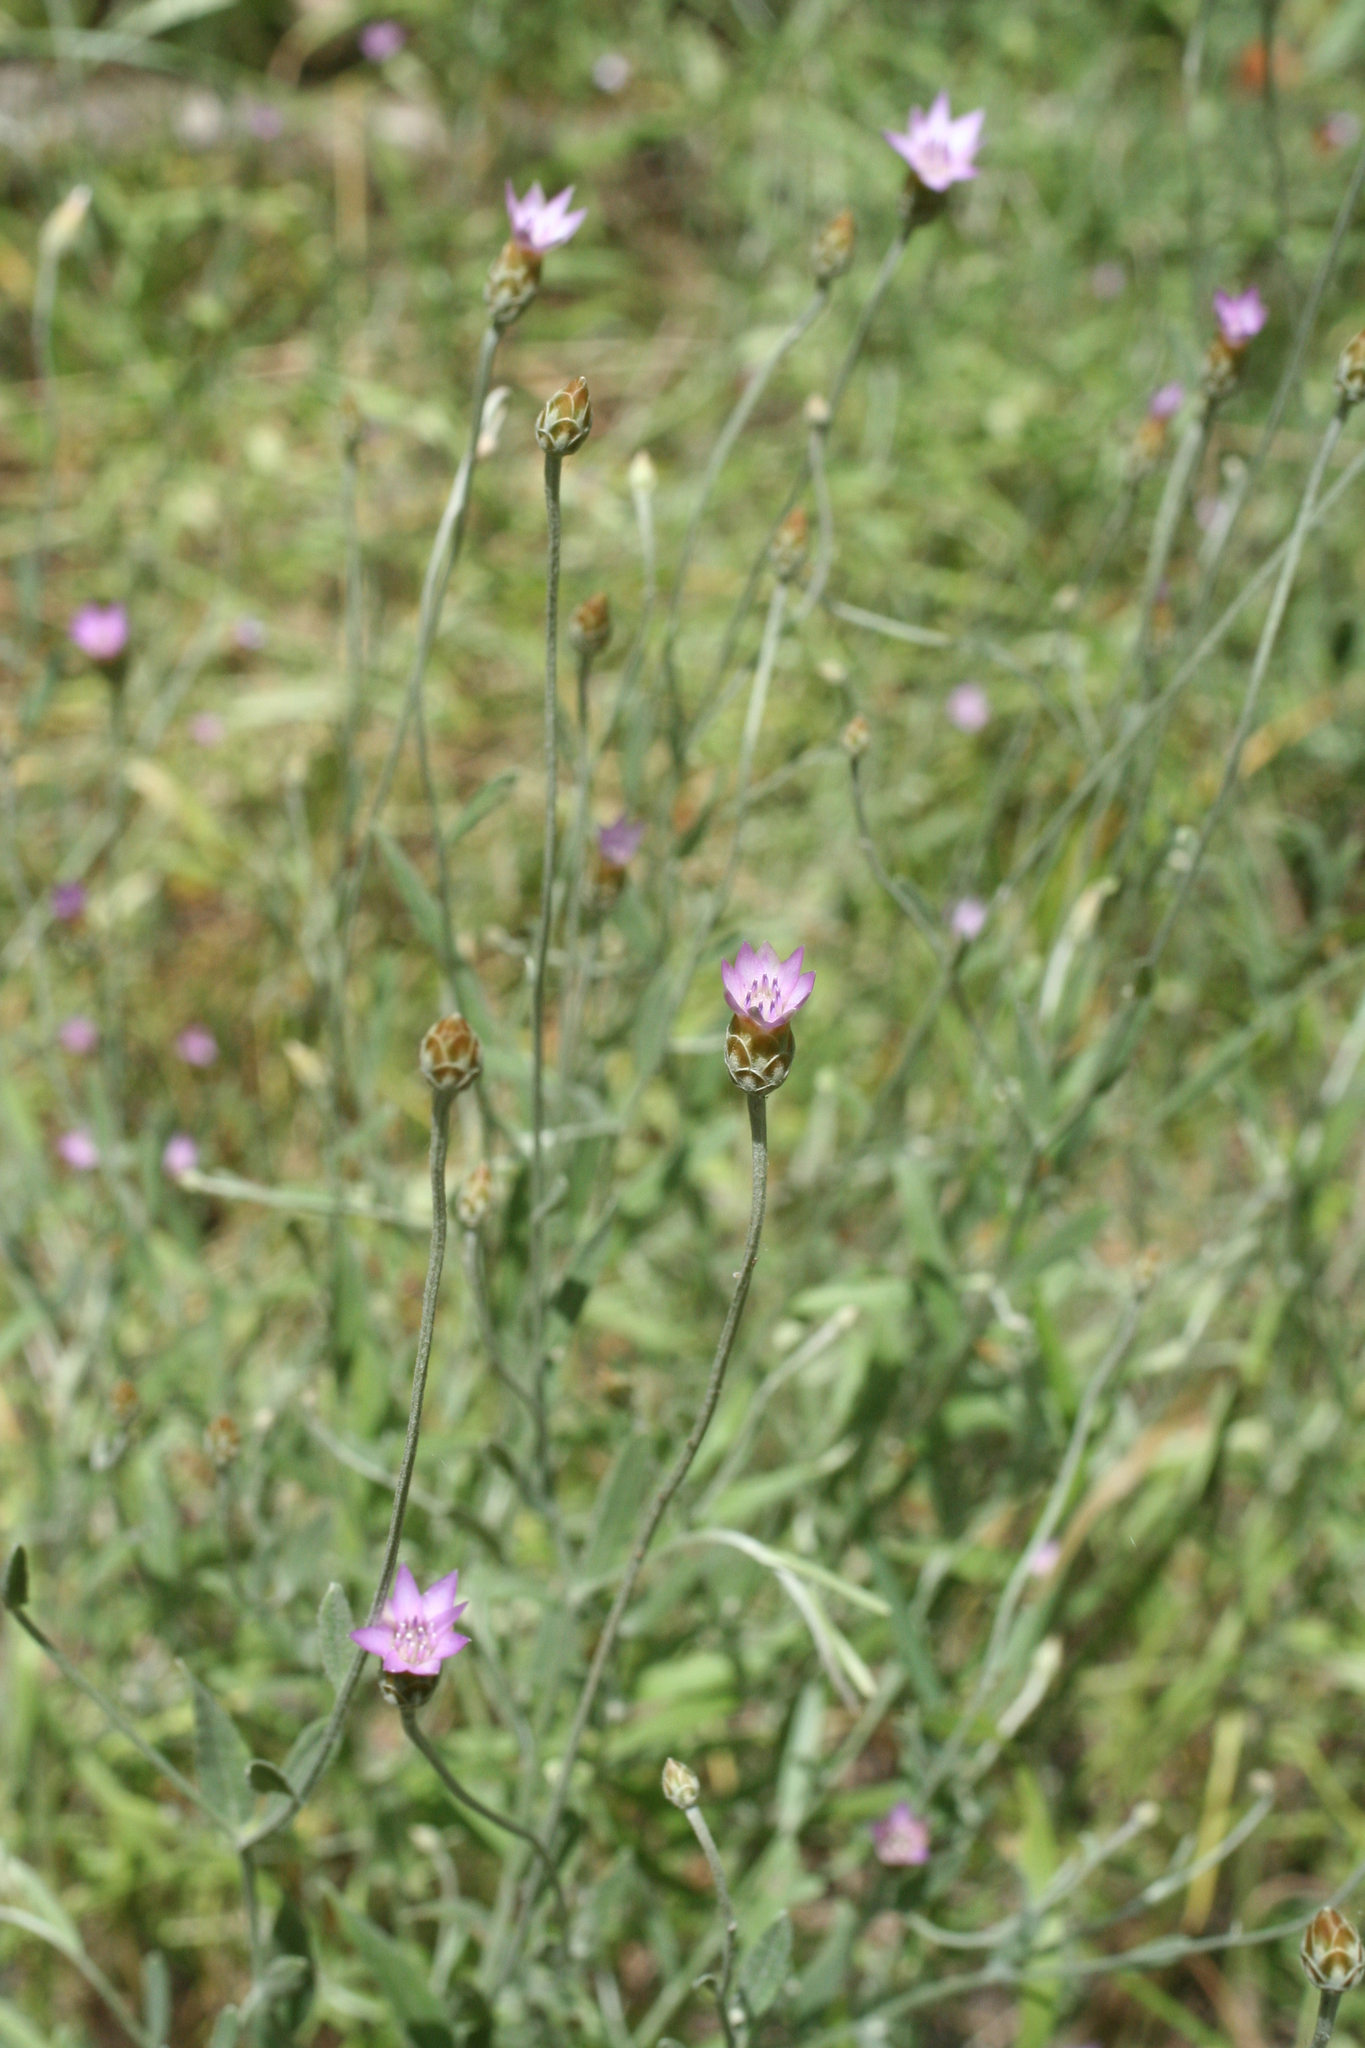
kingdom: Plantae
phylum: Tracheophyta
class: Magnoliopsida
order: Asterales
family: Asteraceae
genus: Xeranthemum
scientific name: Xeranthemum cylindraceum
